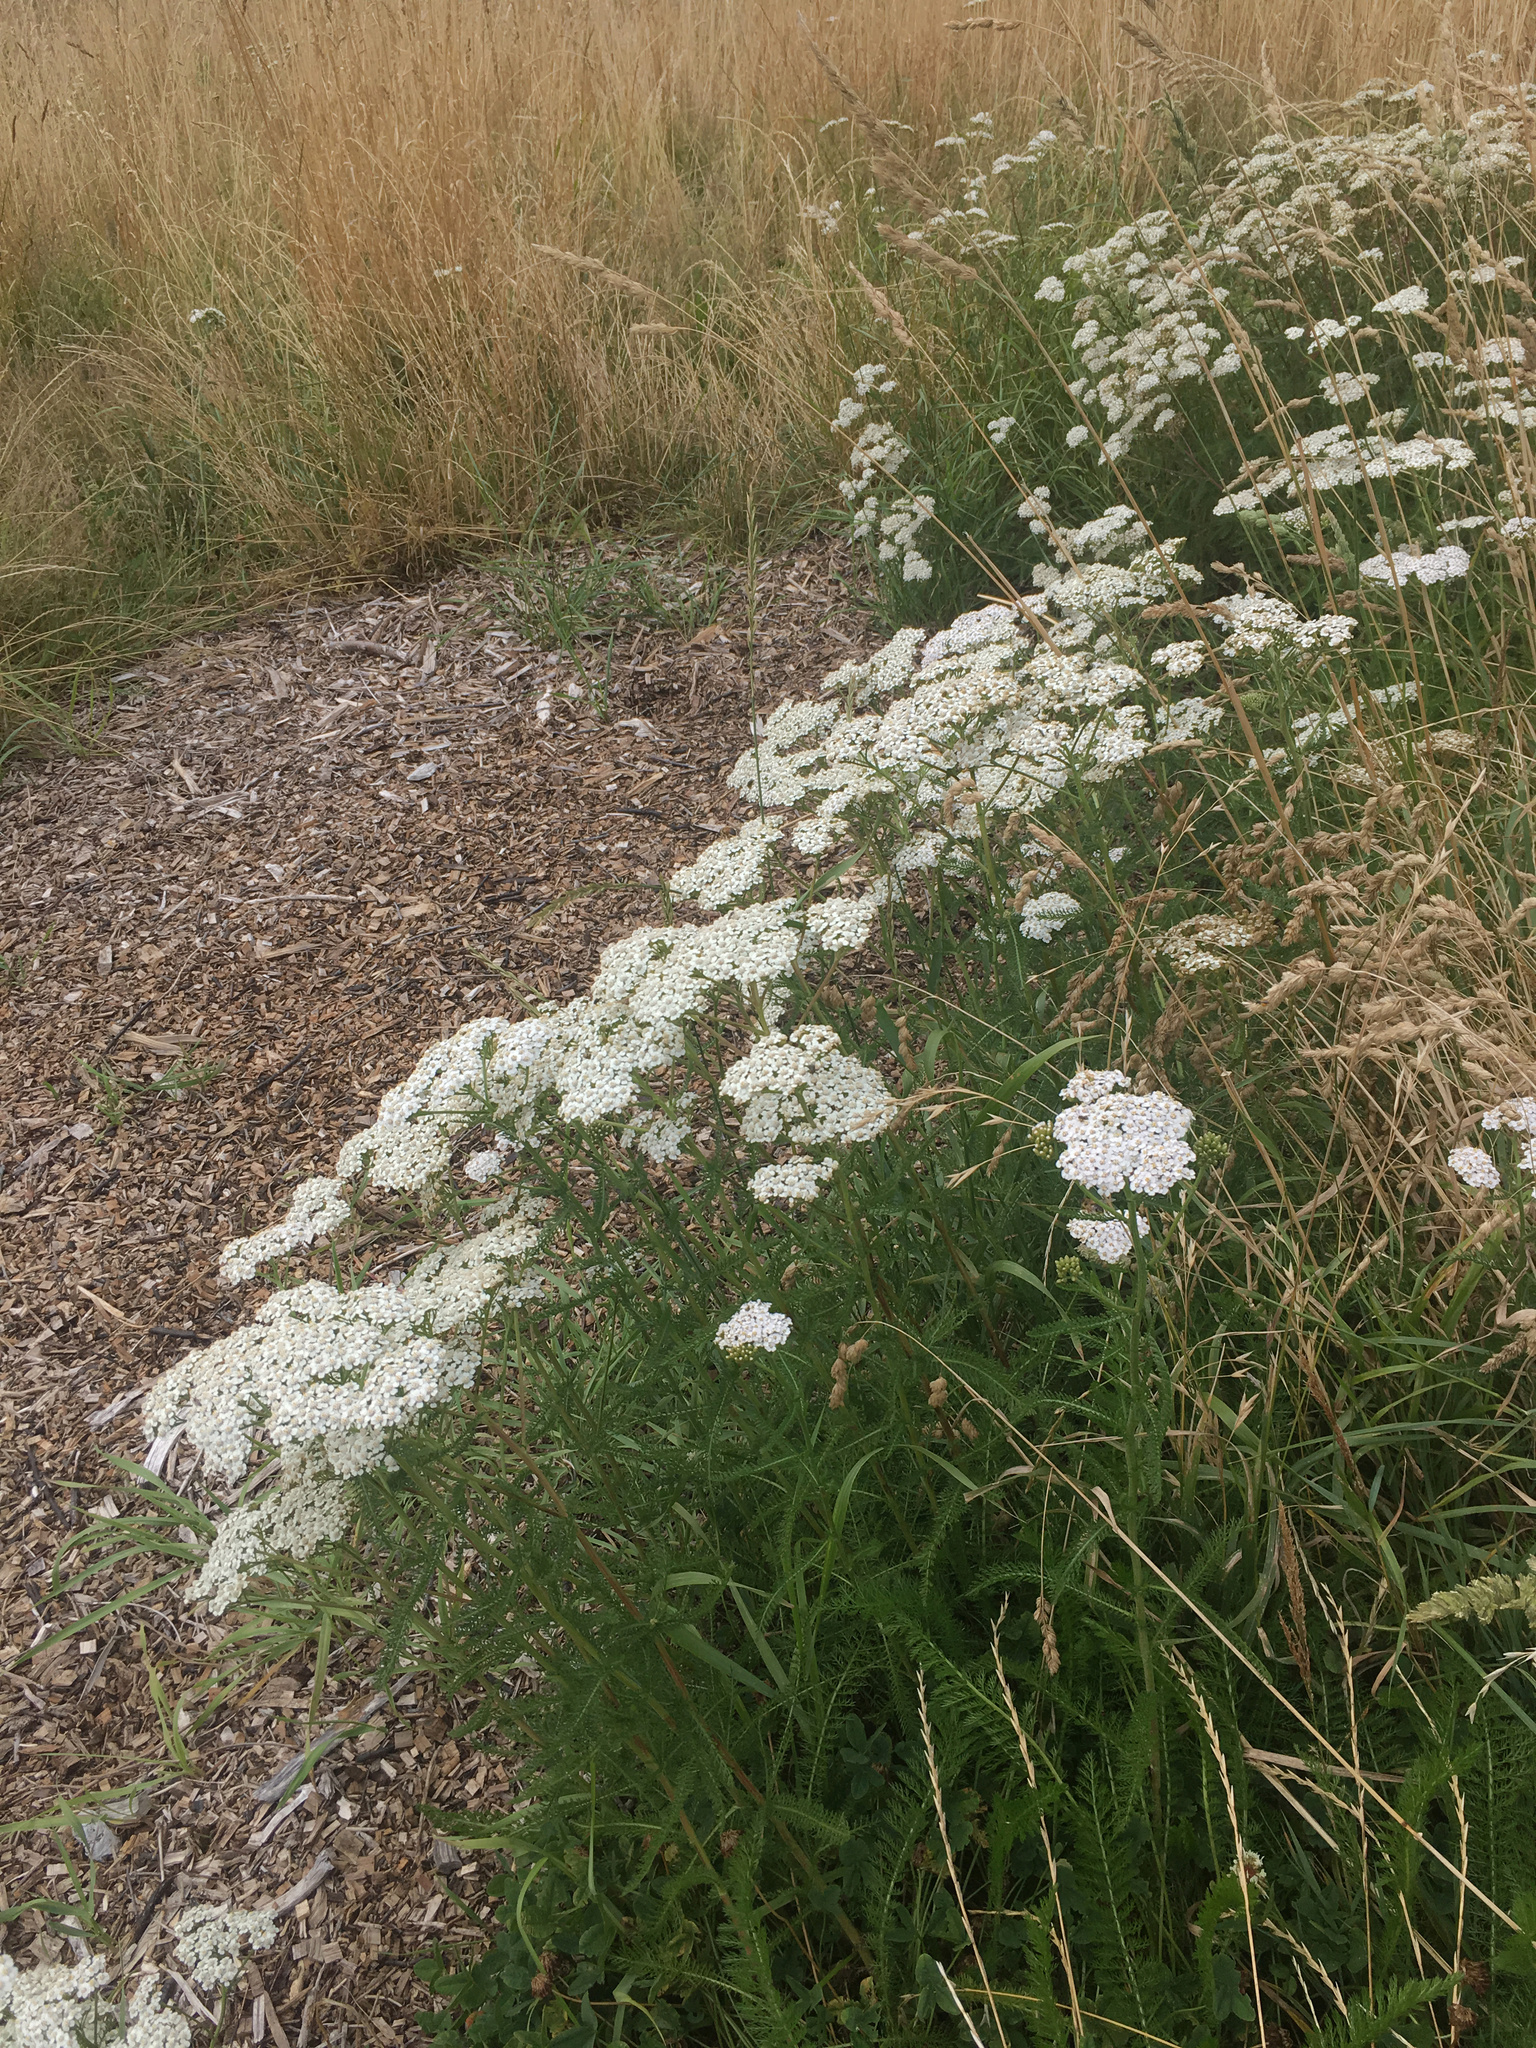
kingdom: Plantae
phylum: Tracheophyta
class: Magnoliopsida
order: Asterales
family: Asteraceae
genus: Achillea
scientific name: Achillea millefolium
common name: Yarrow
